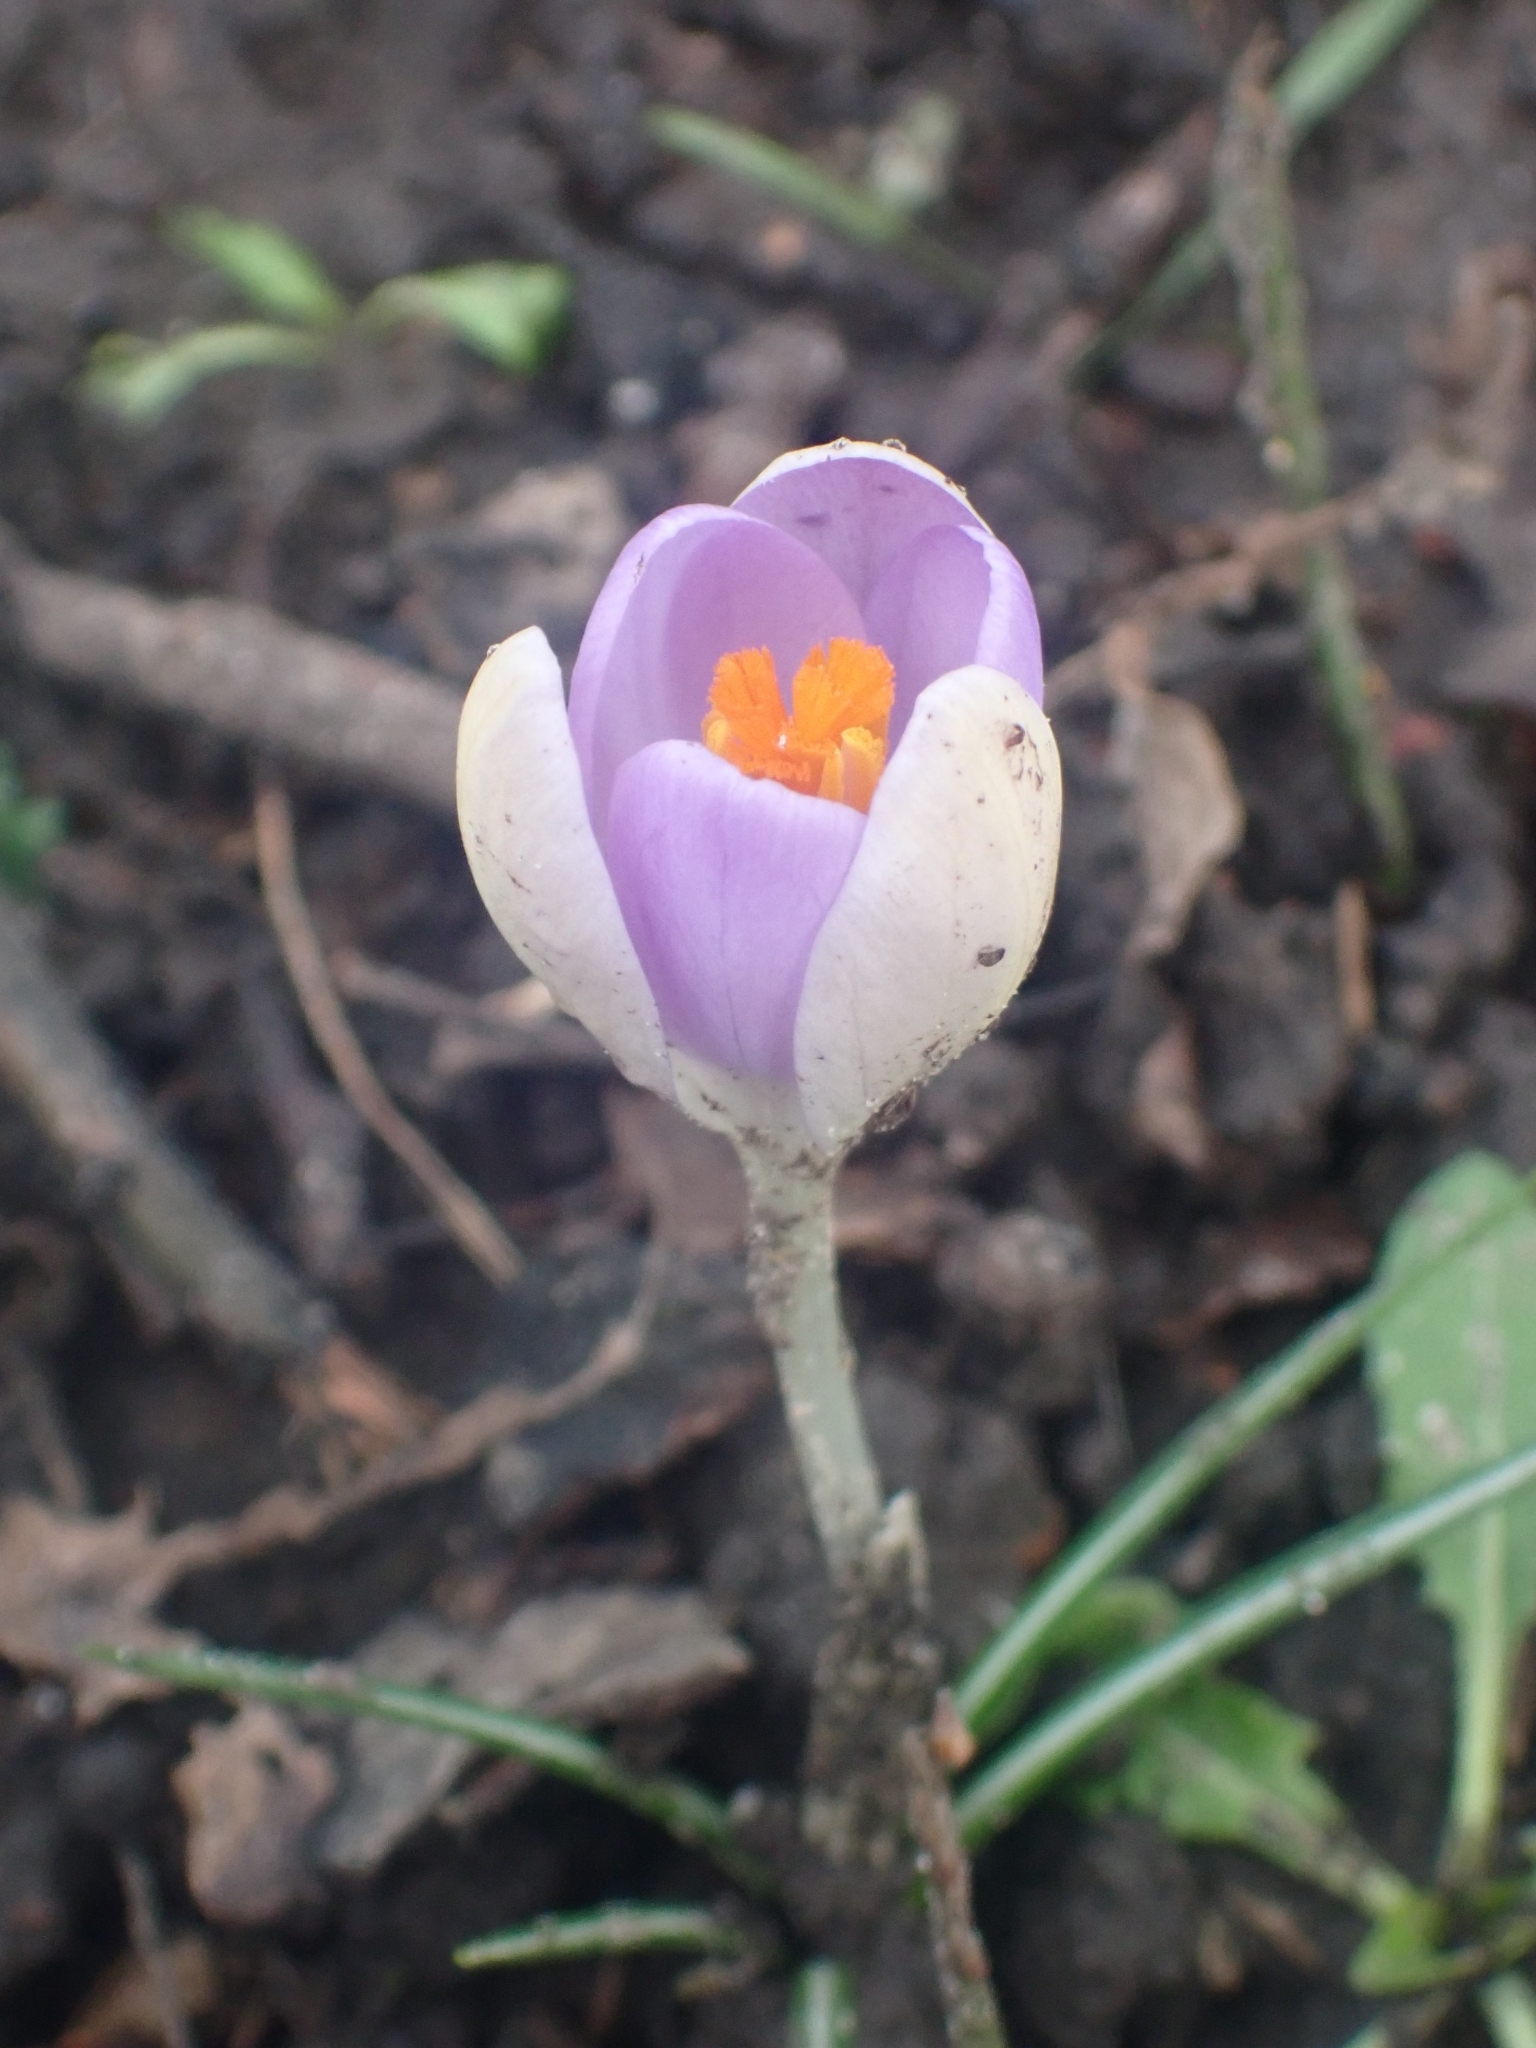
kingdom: Plantae
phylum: Tracheophyta
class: Liliopsida
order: Asparagales
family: Iridaceae
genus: Crocus
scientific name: Crocus tommasinianus
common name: Early crocus
